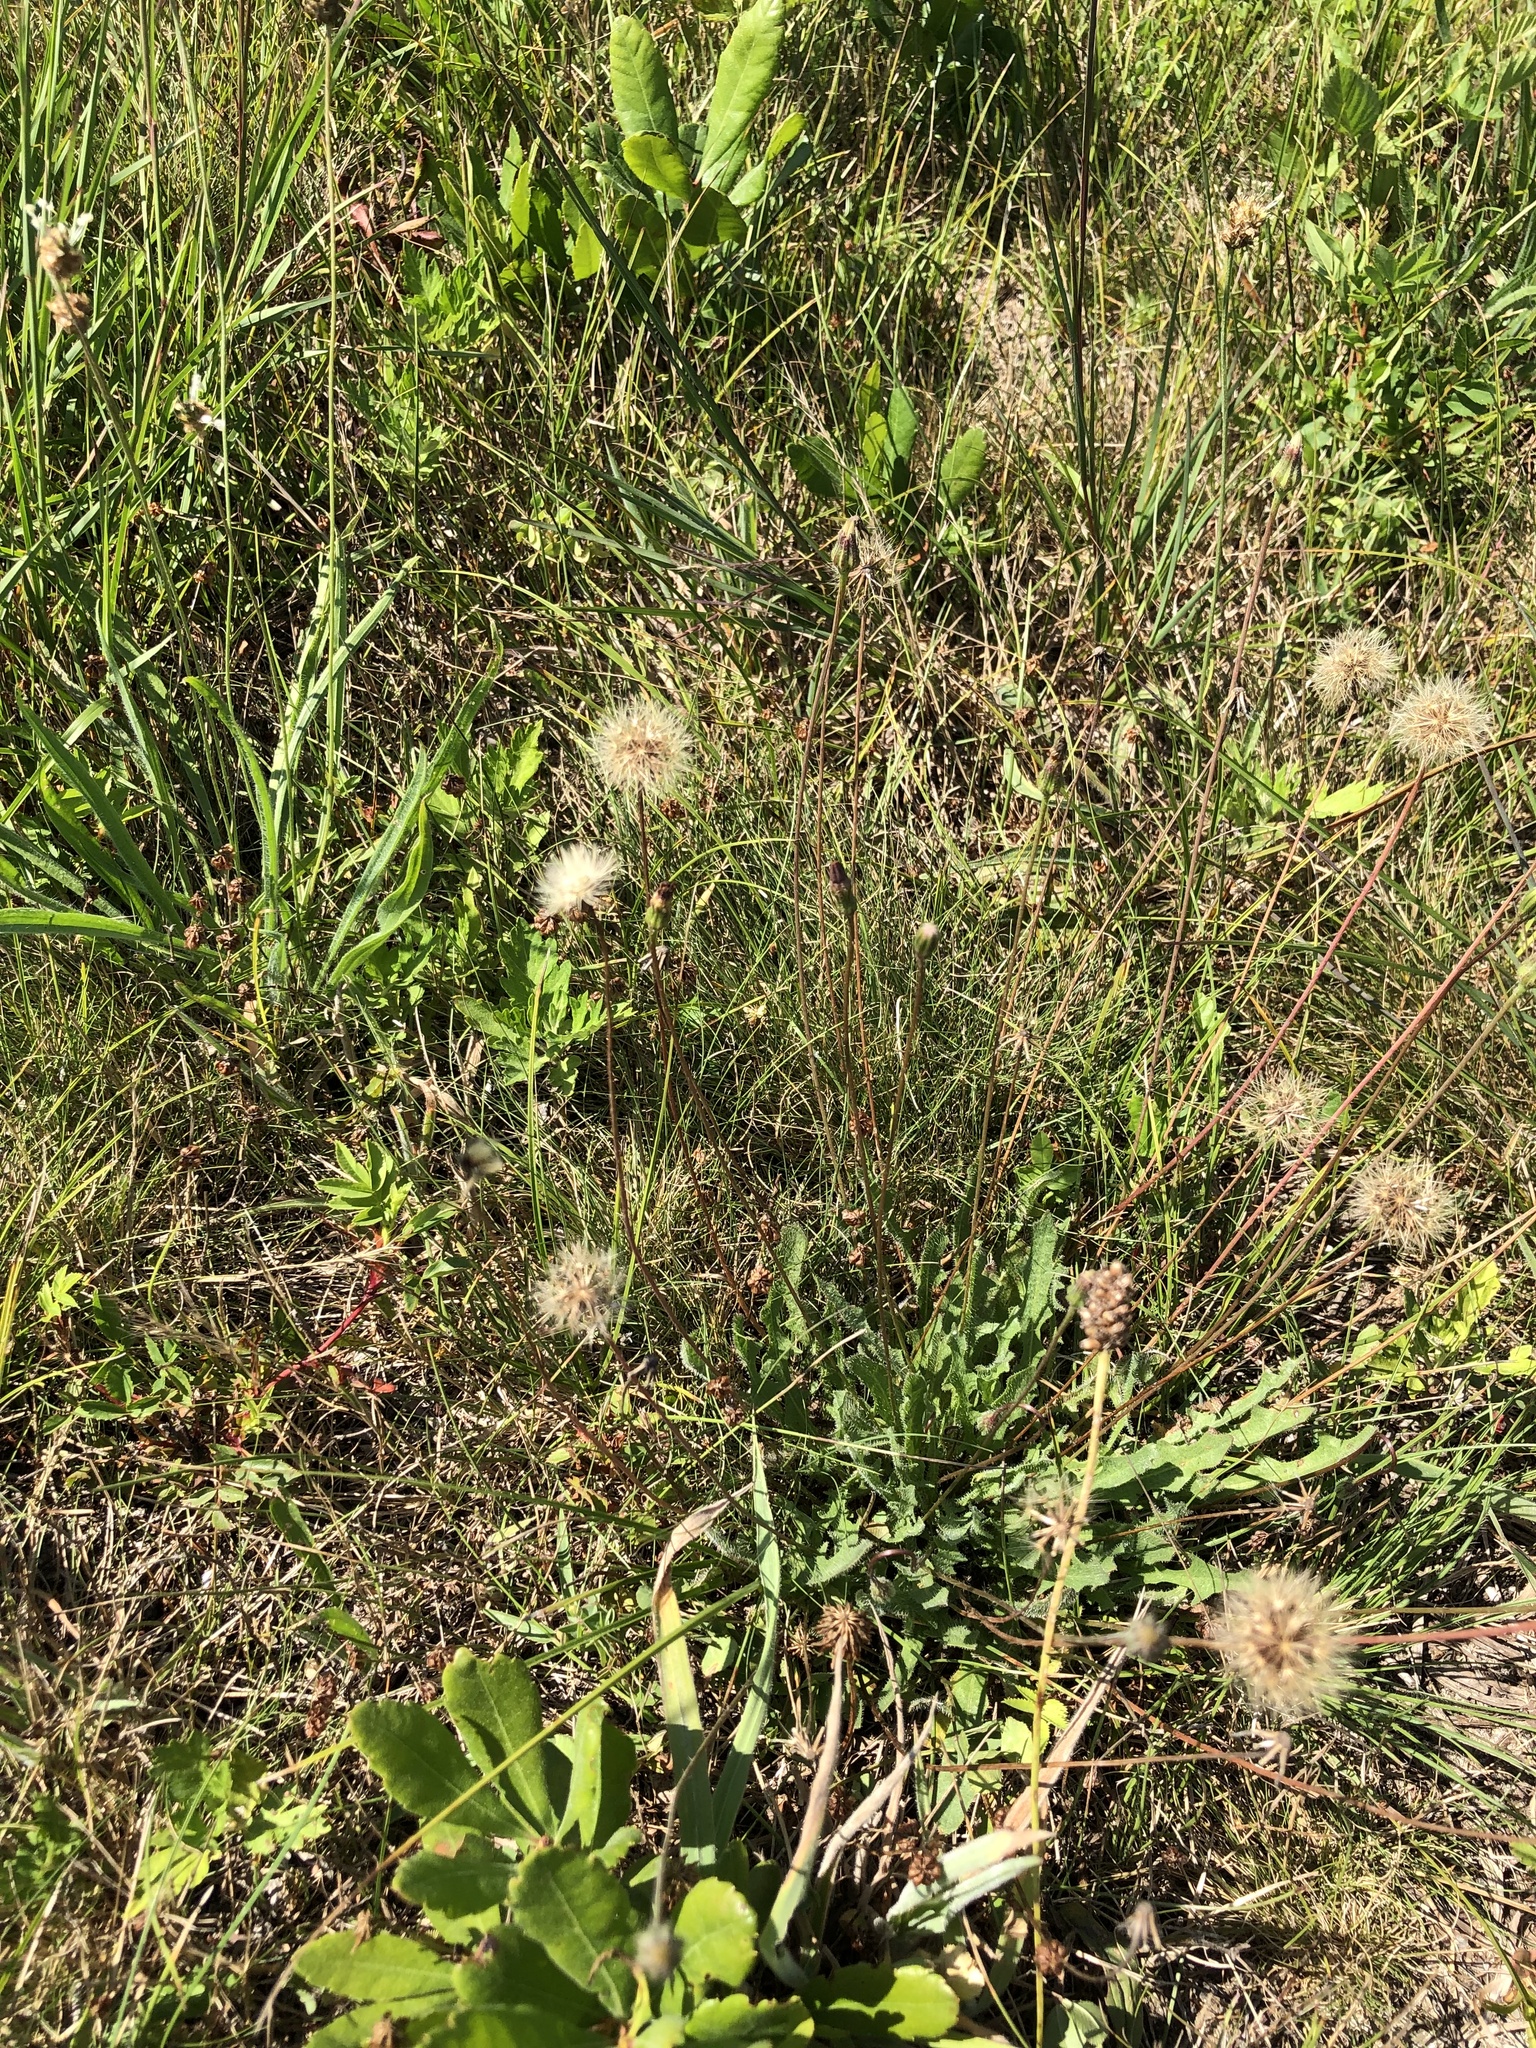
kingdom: Plantae
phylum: Tracheophyta
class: Magnoliopsida
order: Asterales
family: Asteraceae
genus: Hypochaeris
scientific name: Hypochaeris radicata
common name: Flatweed
